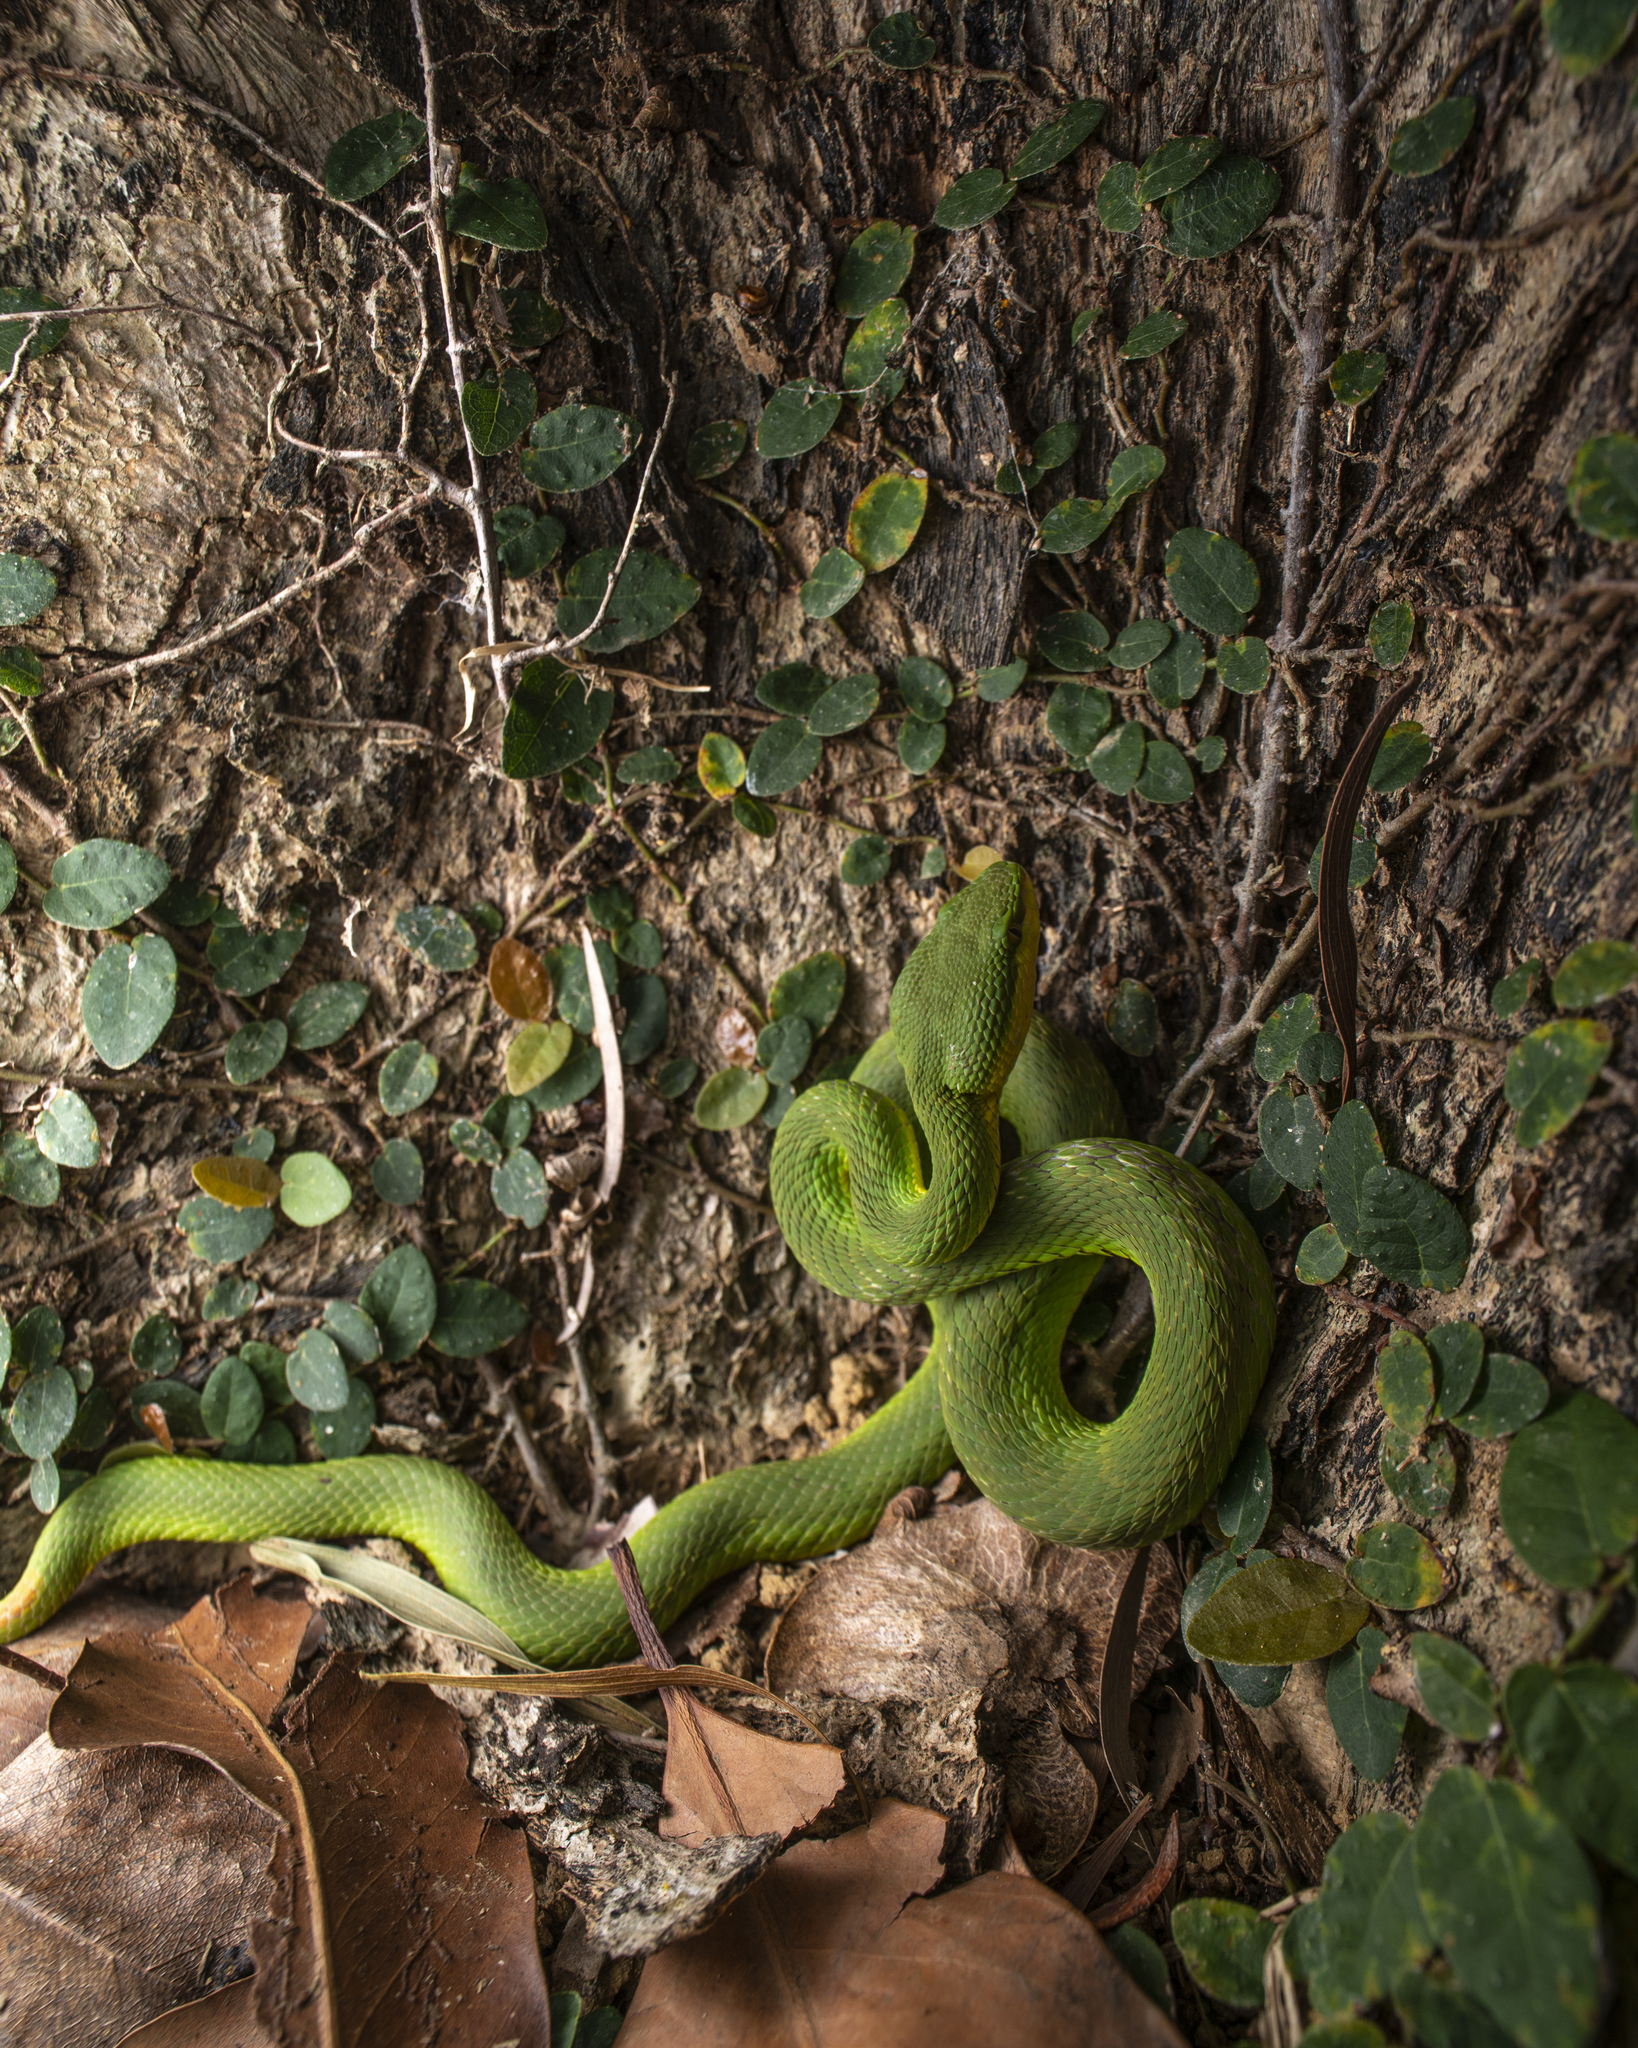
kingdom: Animalia
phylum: Chordata
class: Squamata
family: Viperidae
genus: Trimeresurus
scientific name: Trimeresurus albolabris
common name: White-lipped pitviper
